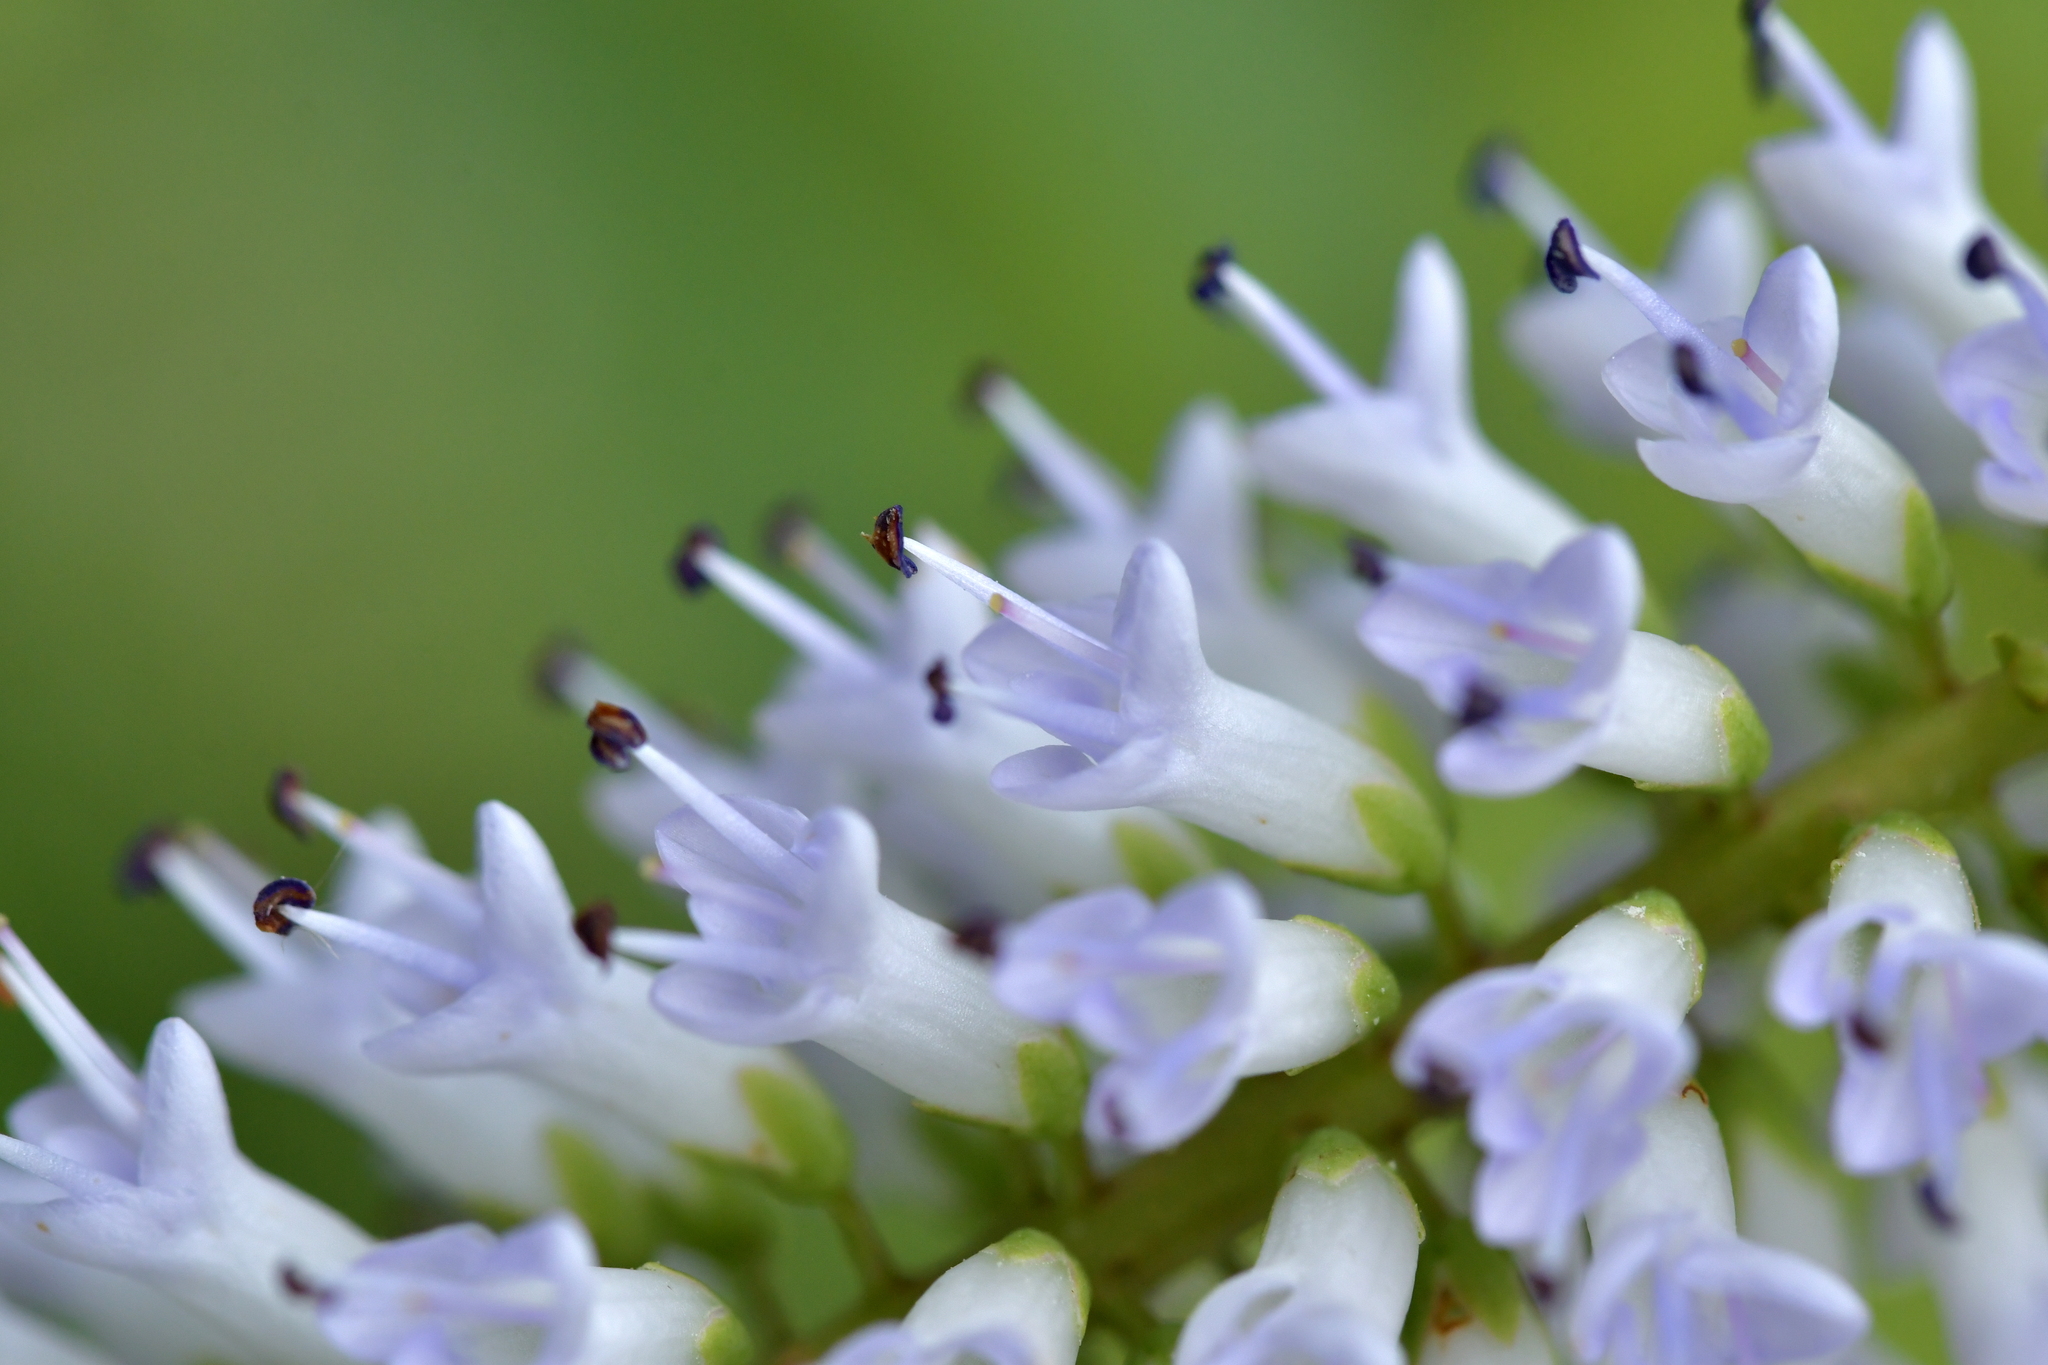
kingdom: Plantae
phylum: Tracheophyta
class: Magnoliopsida
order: Lamiales
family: Plantaginaceae
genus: Veronica
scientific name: Veronica stricta
